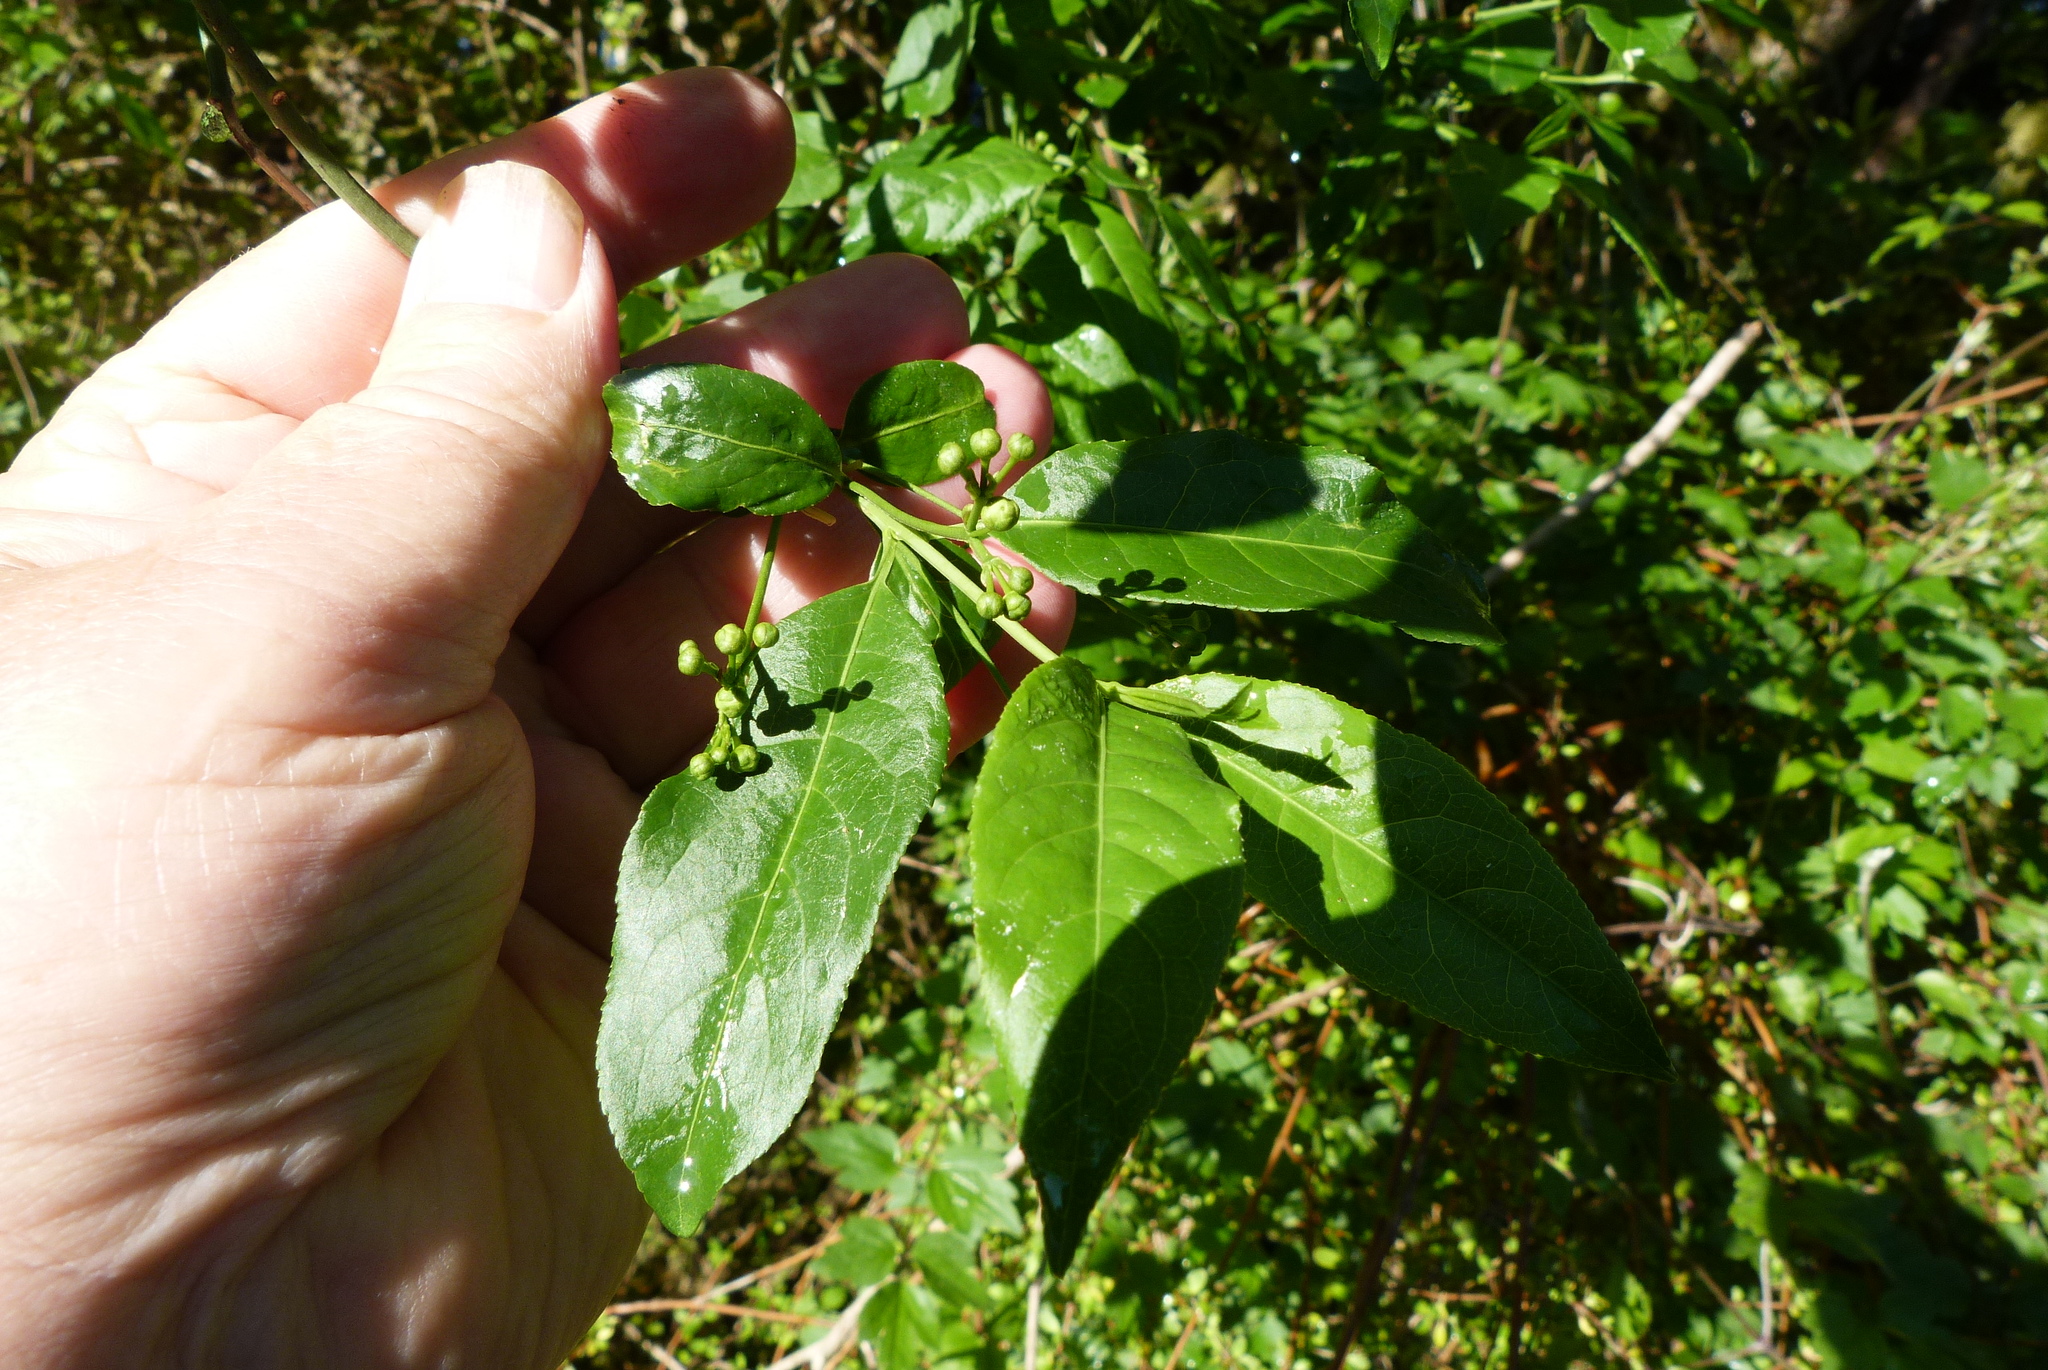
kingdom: Plantae
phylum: Tracheophyta
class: Magnoliopsida
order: Celastrales
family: Celastraceae
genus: Euonymus
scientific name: Euonymus europaeus
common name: Spindle
